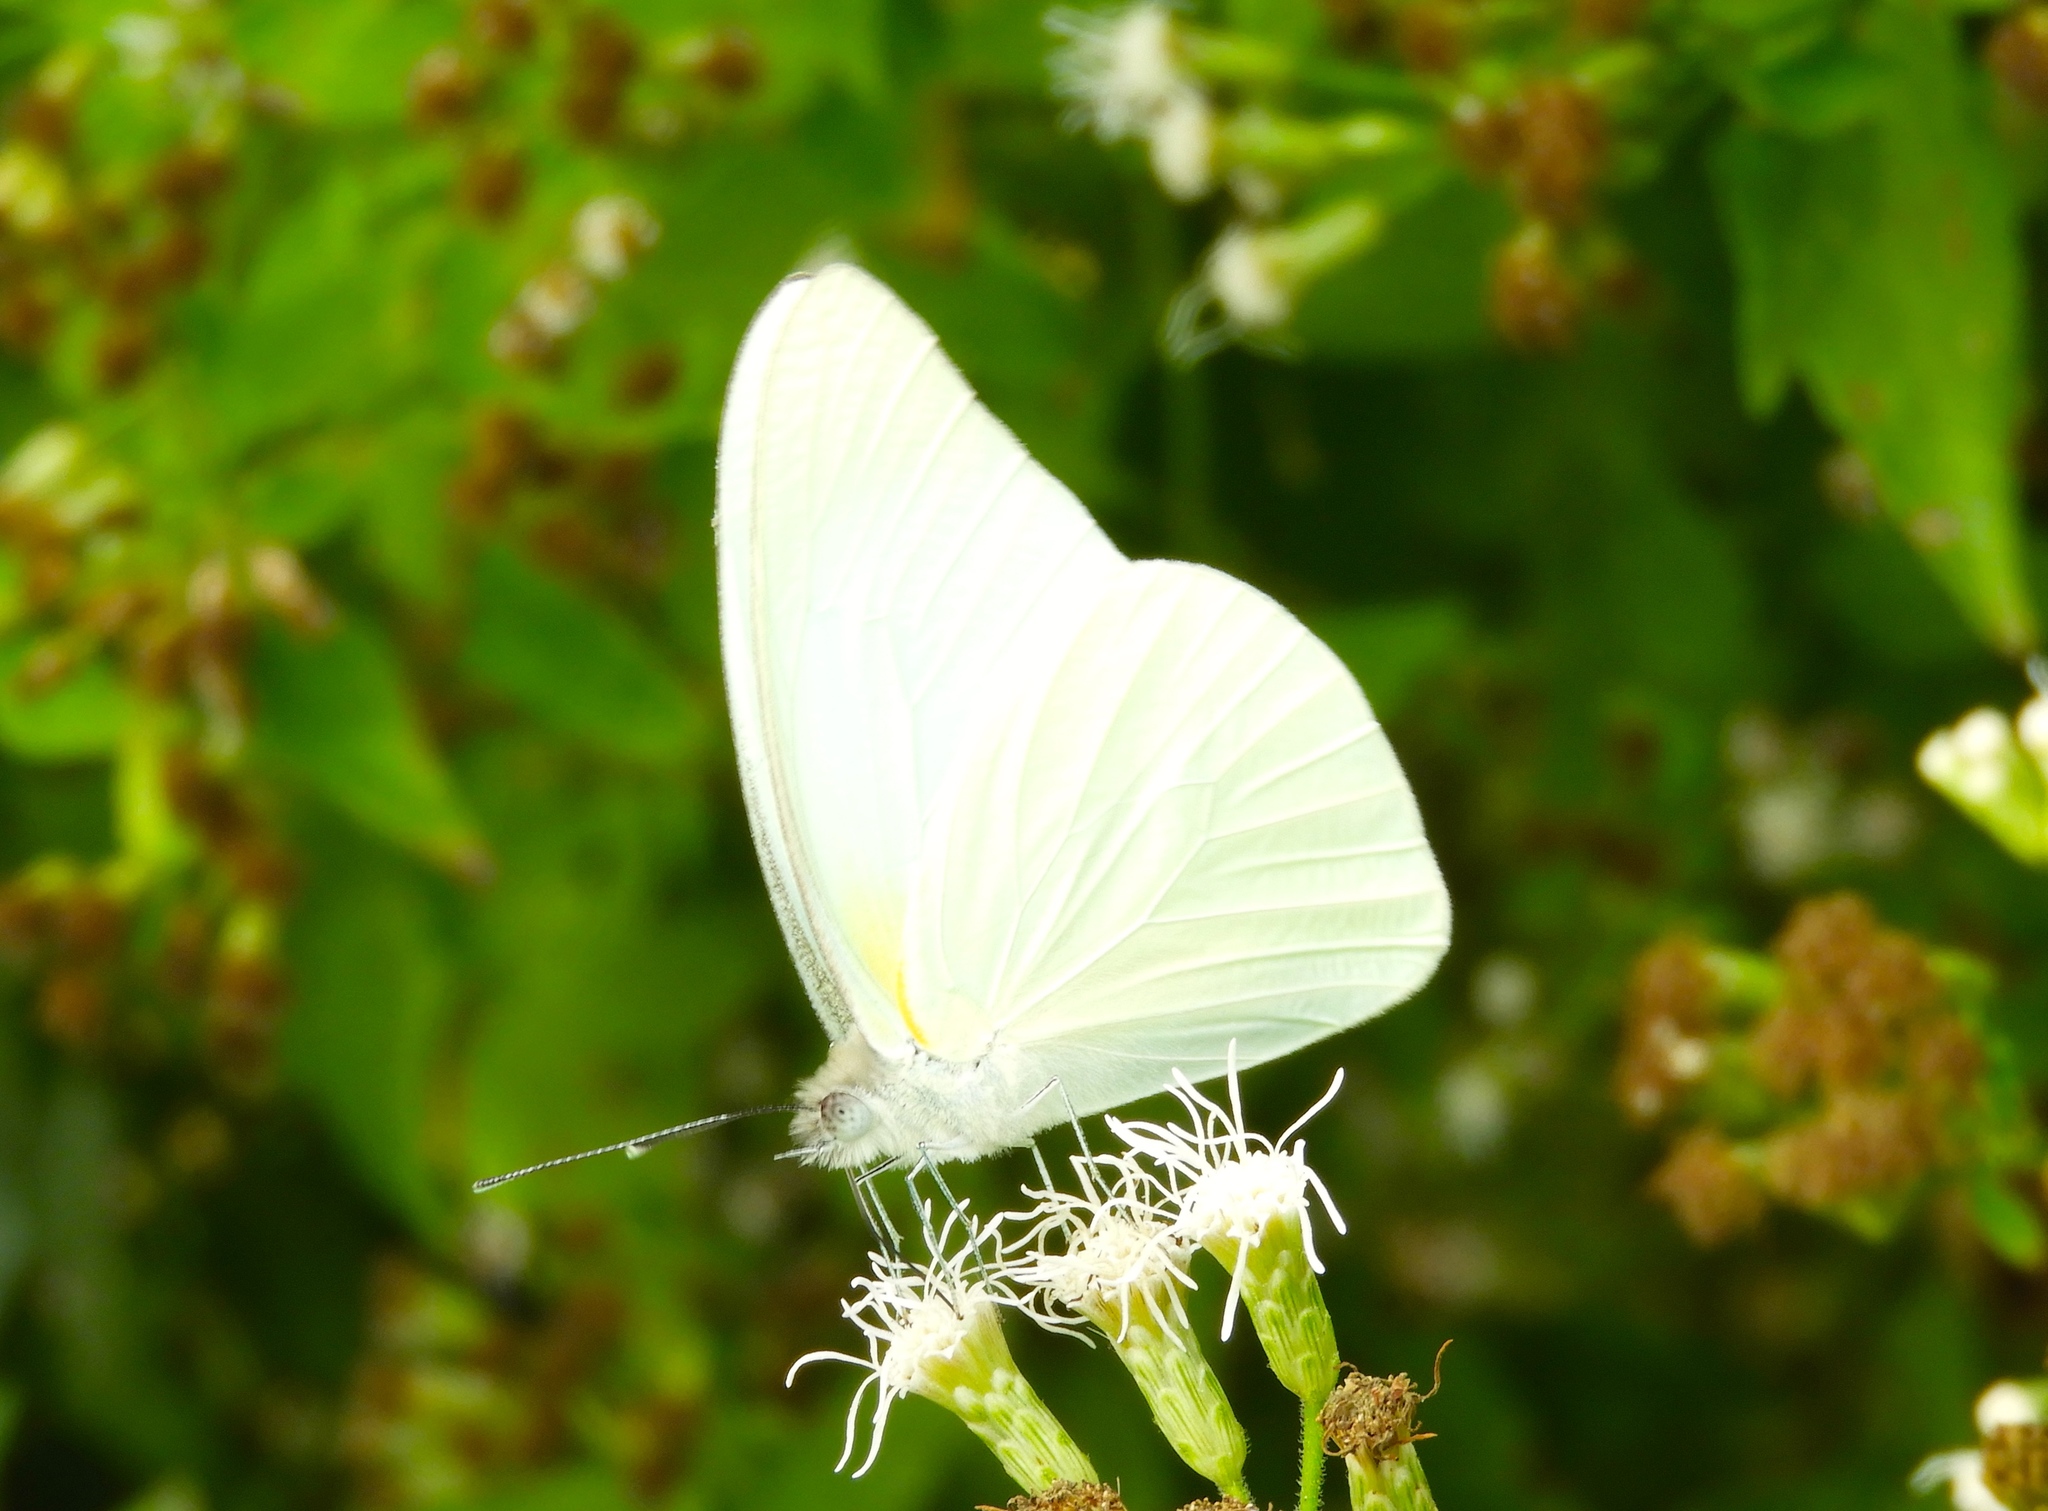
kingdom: Animalia
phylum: Arthropoda
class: Insecta
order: Lepidoptera
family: Pieridae
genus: Glutophrissa
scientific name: Glutophrissa drusilla
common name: Florida white
